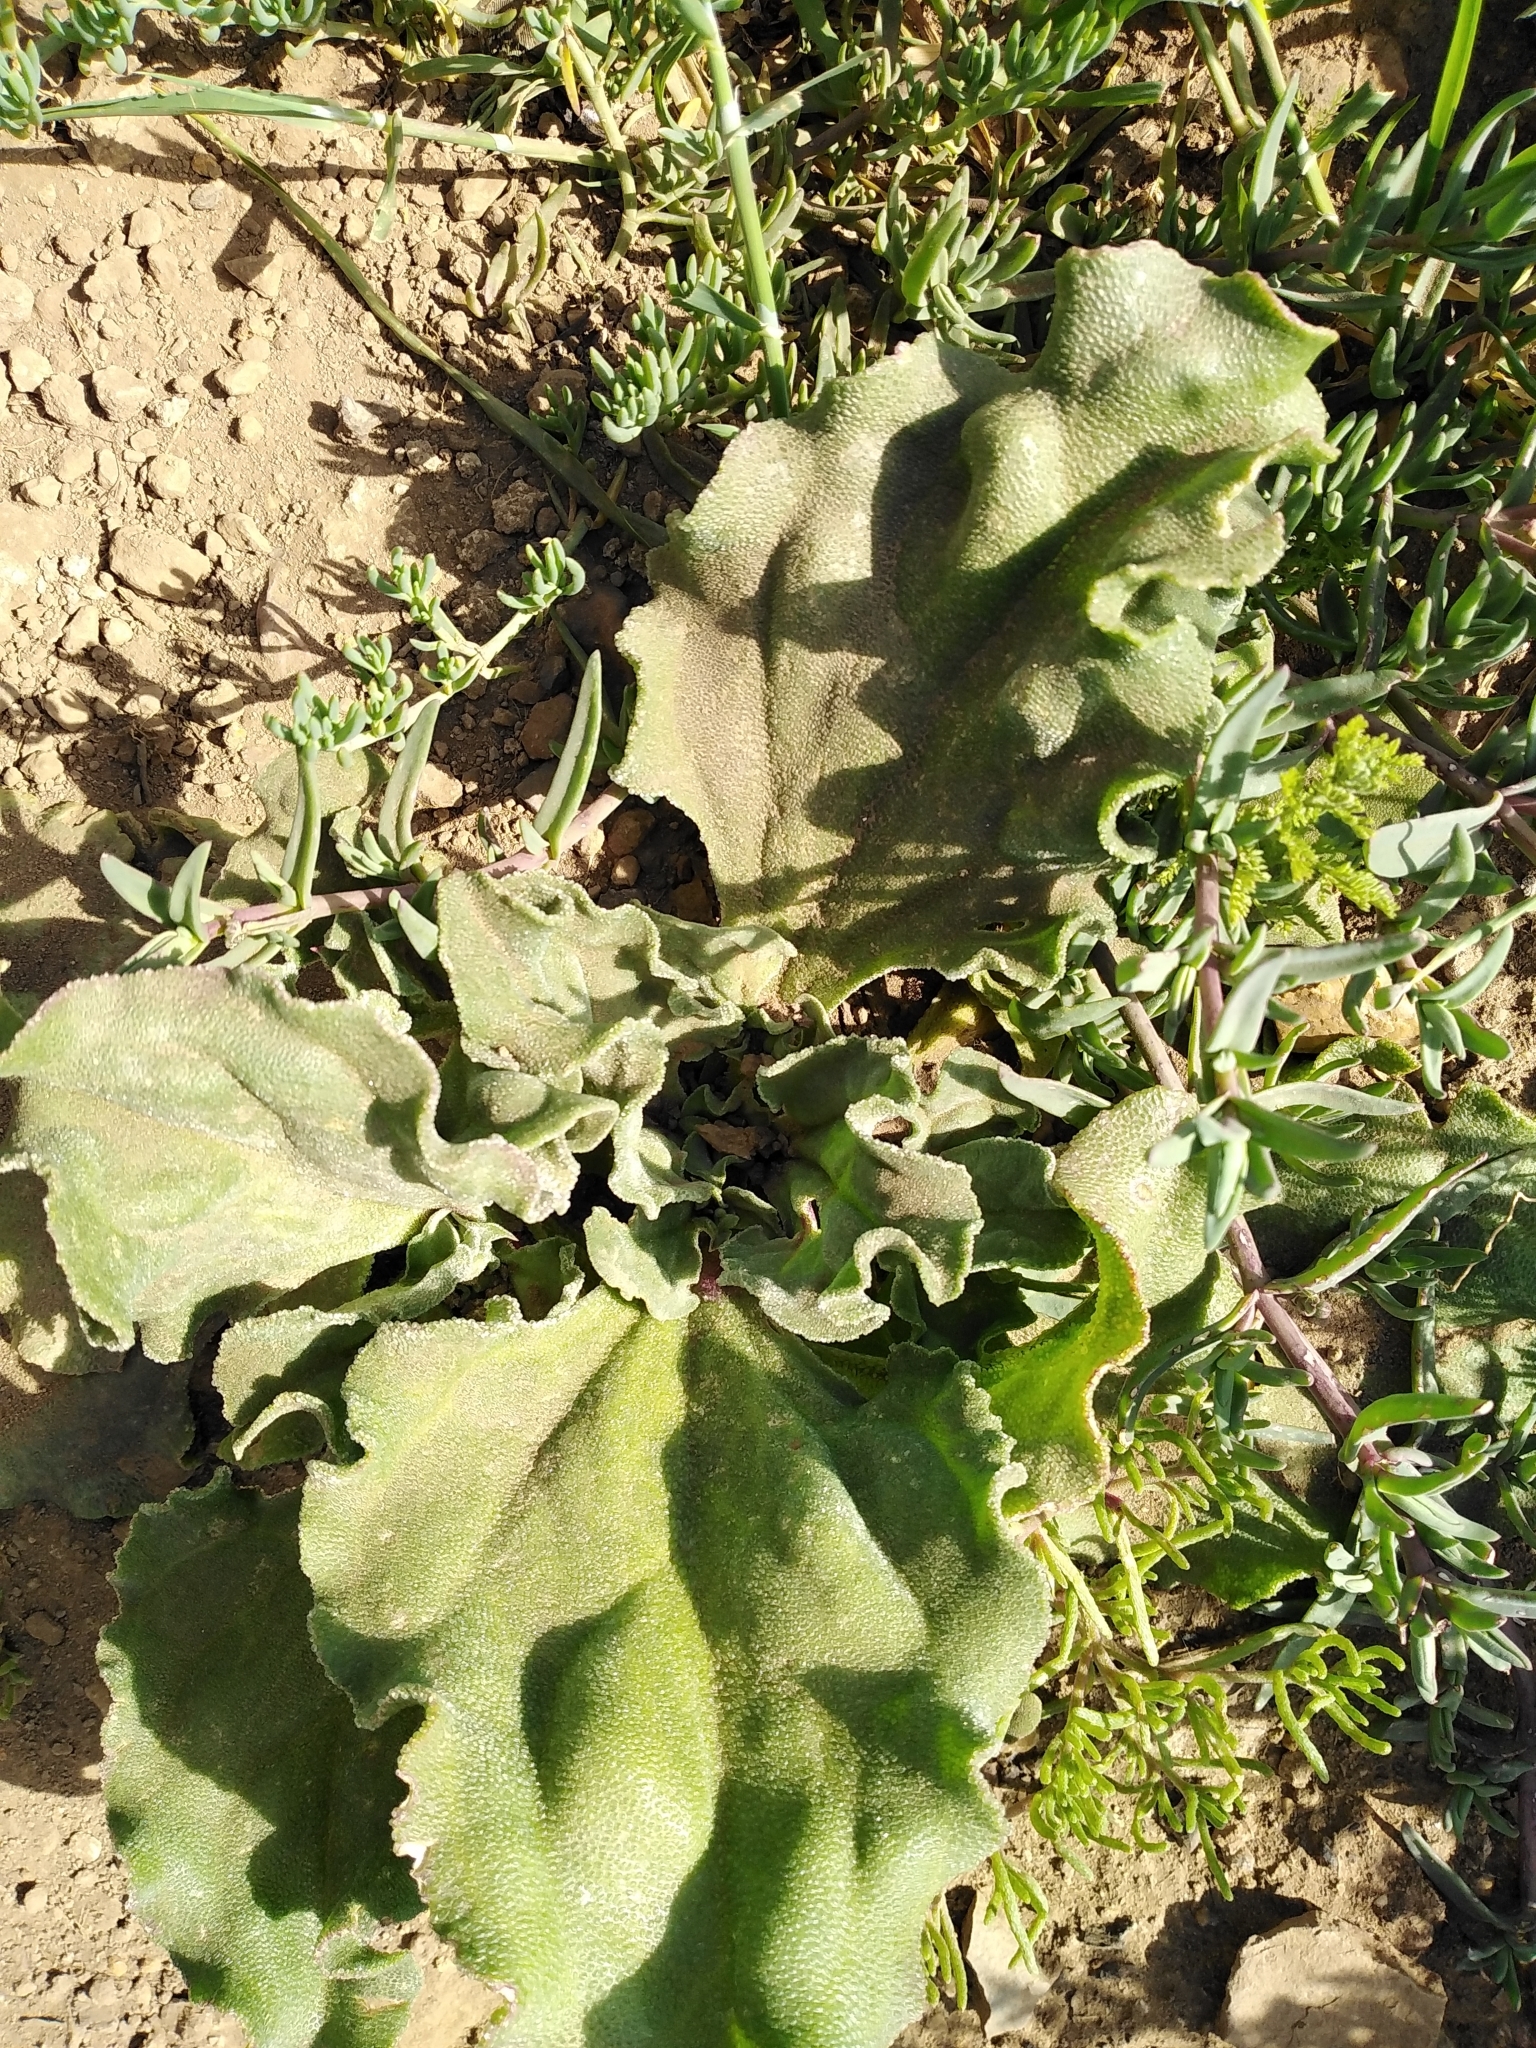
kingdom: Plantae
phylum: Tracheophyta
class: Magnoliopsida
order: Caryophyllales
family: Aizoaceae
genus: Mesembryanthemum
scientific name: Mesembryanthemum crystallinum
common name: Common iceplant
